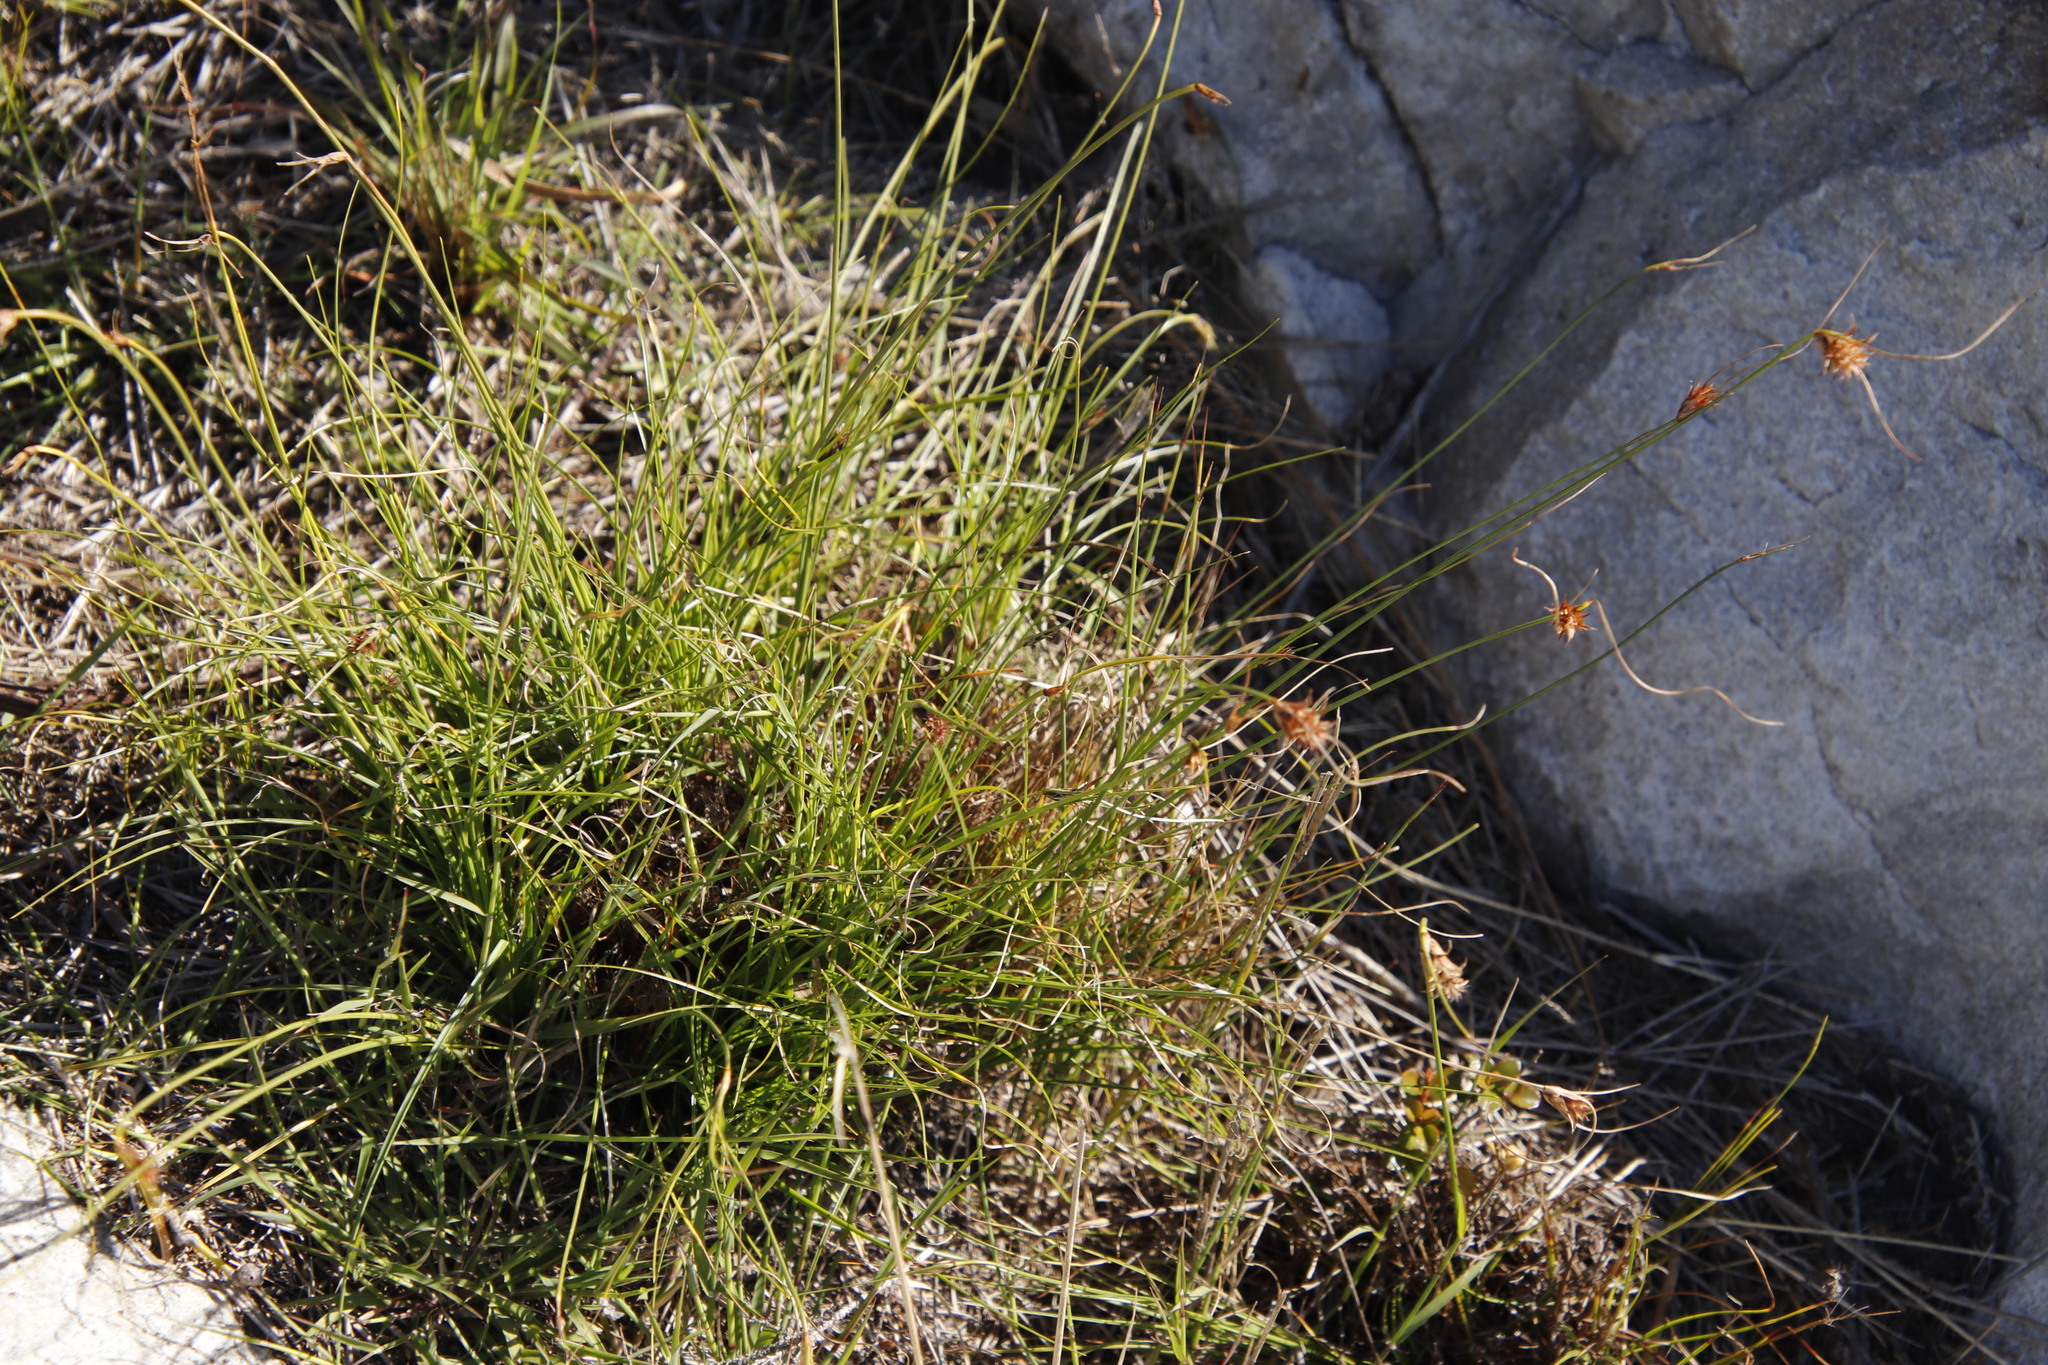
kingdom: Plantae
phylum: Tracheophyta
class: Liliopsida
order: Poales
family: Cyperaceae
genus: Ficinia
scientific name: Ficinia nigrescens
